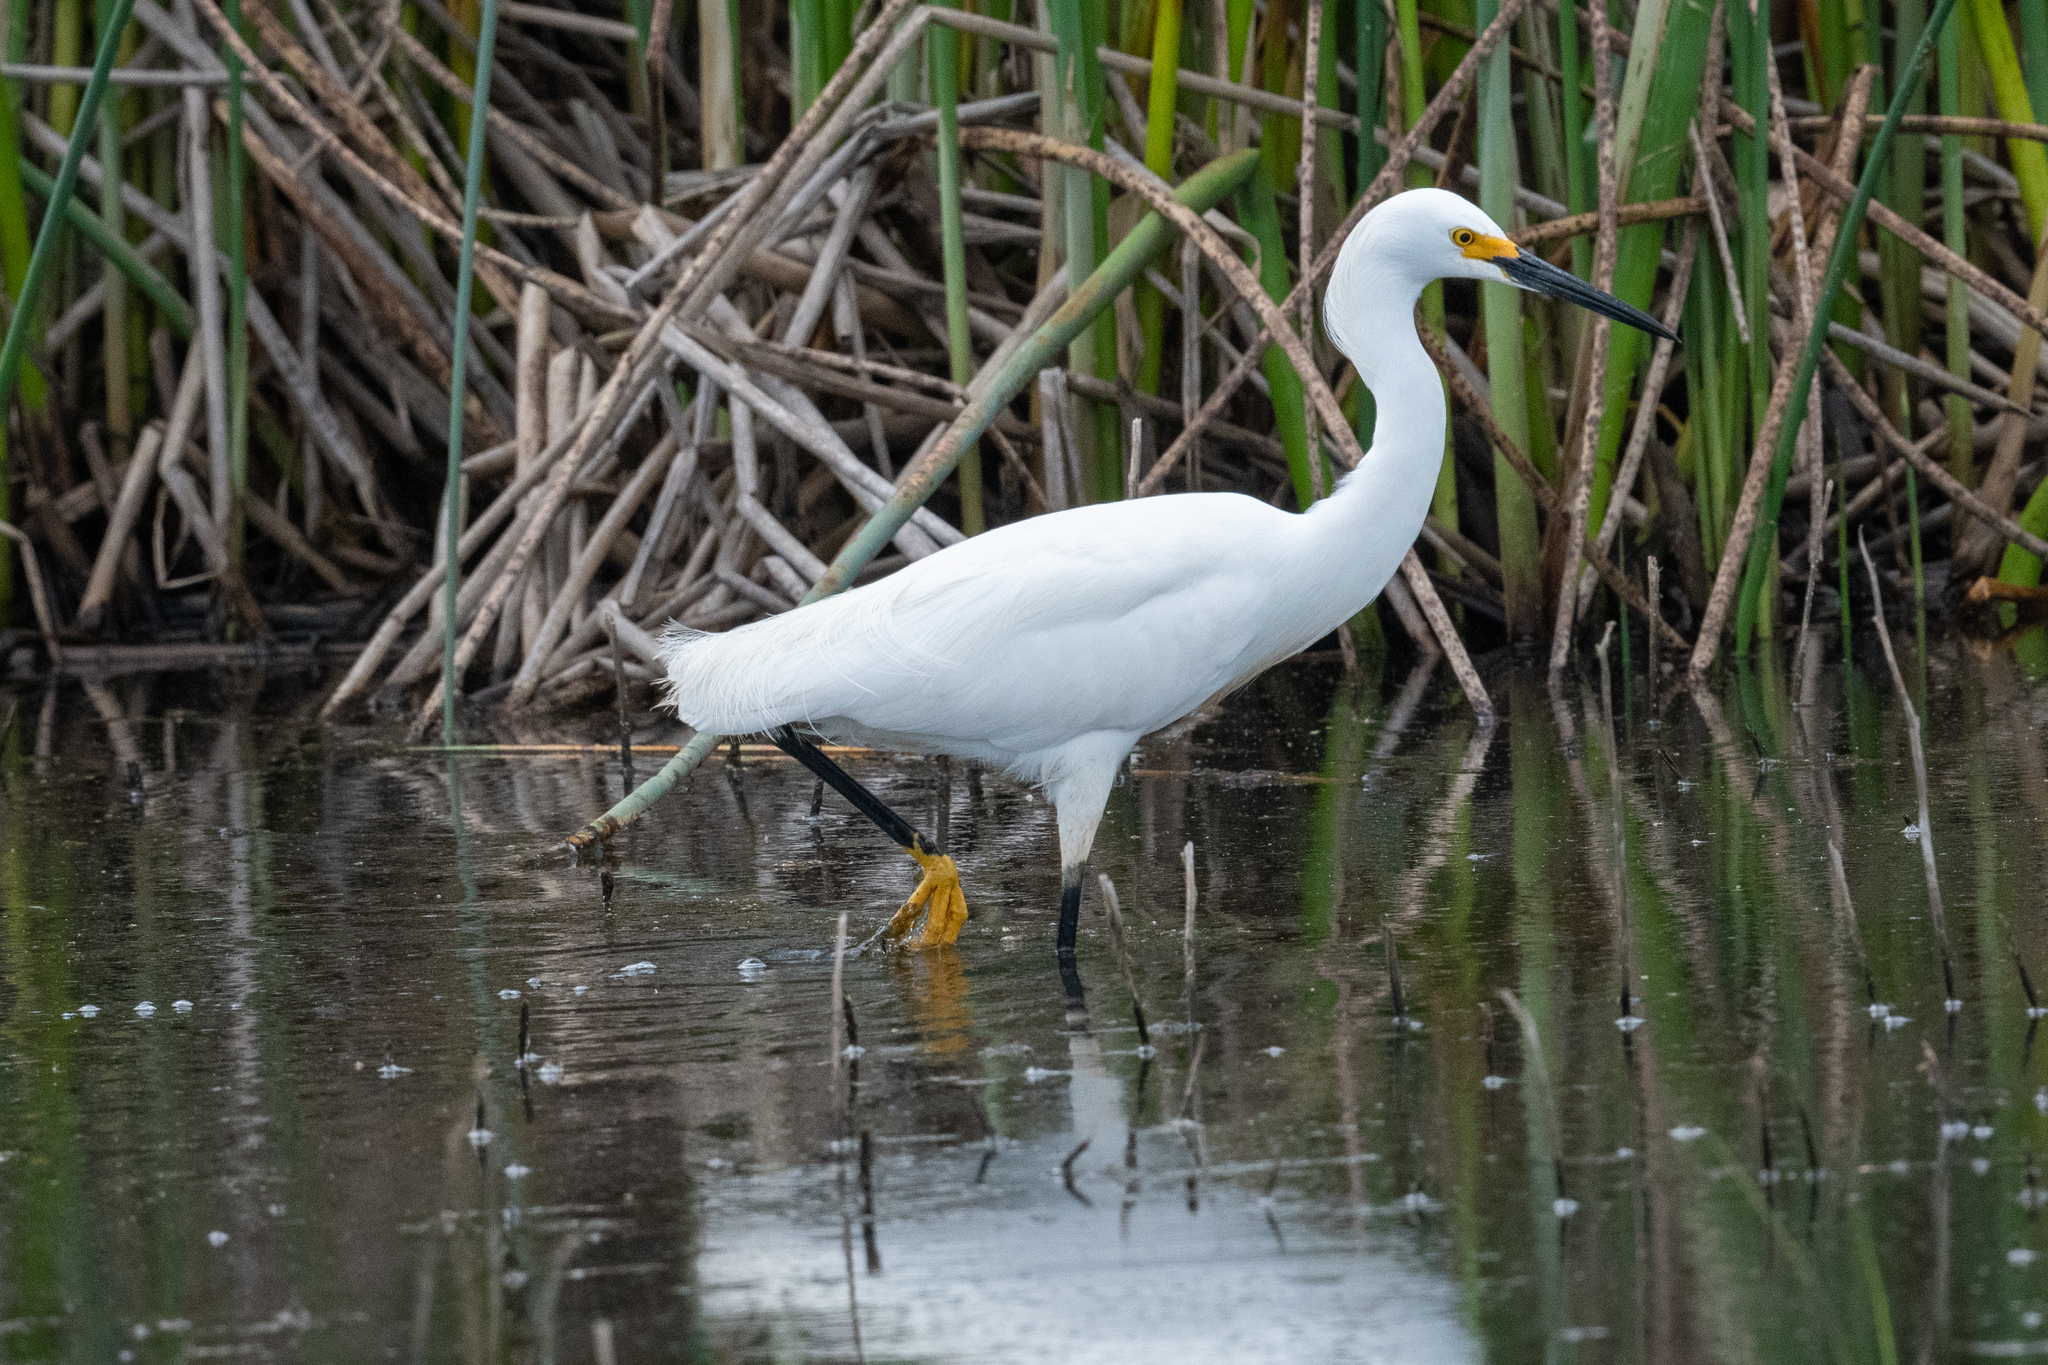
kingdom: Animalia
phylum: Chordata
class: Aves
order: Pelecaniformes
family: Ardeidae
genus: Egretta
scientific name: Egretta thula
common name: Snowy egret
